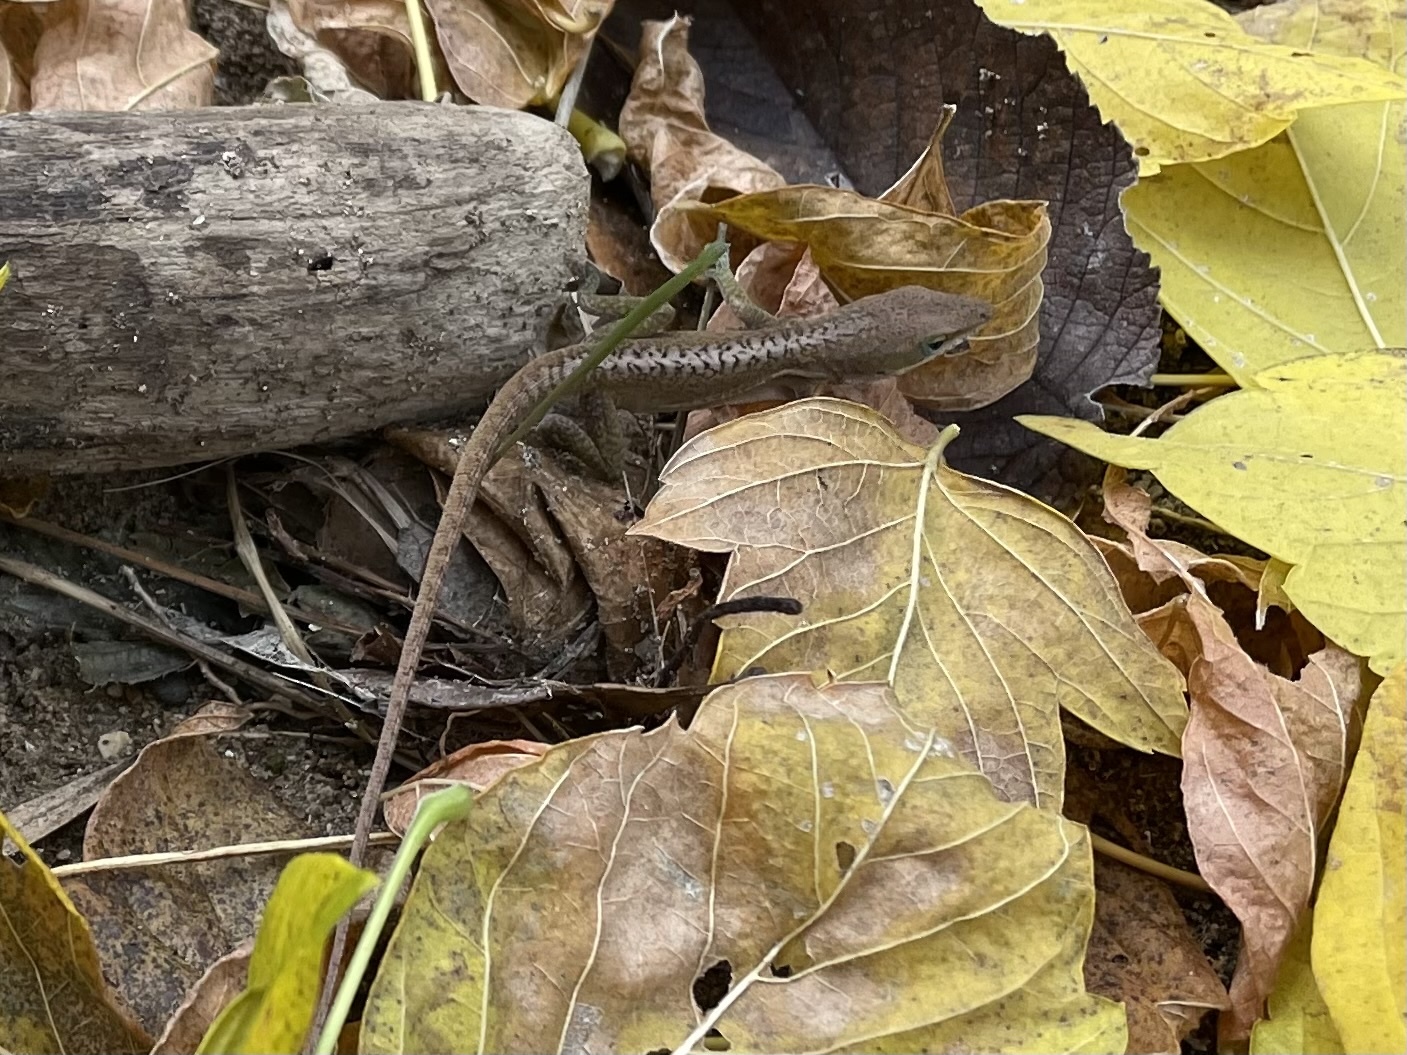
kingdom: Animalia
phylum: Chordata
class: Squamata
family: Dactyloidae
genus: Anolis
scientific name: Anolis carolinensis
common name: Green anole
